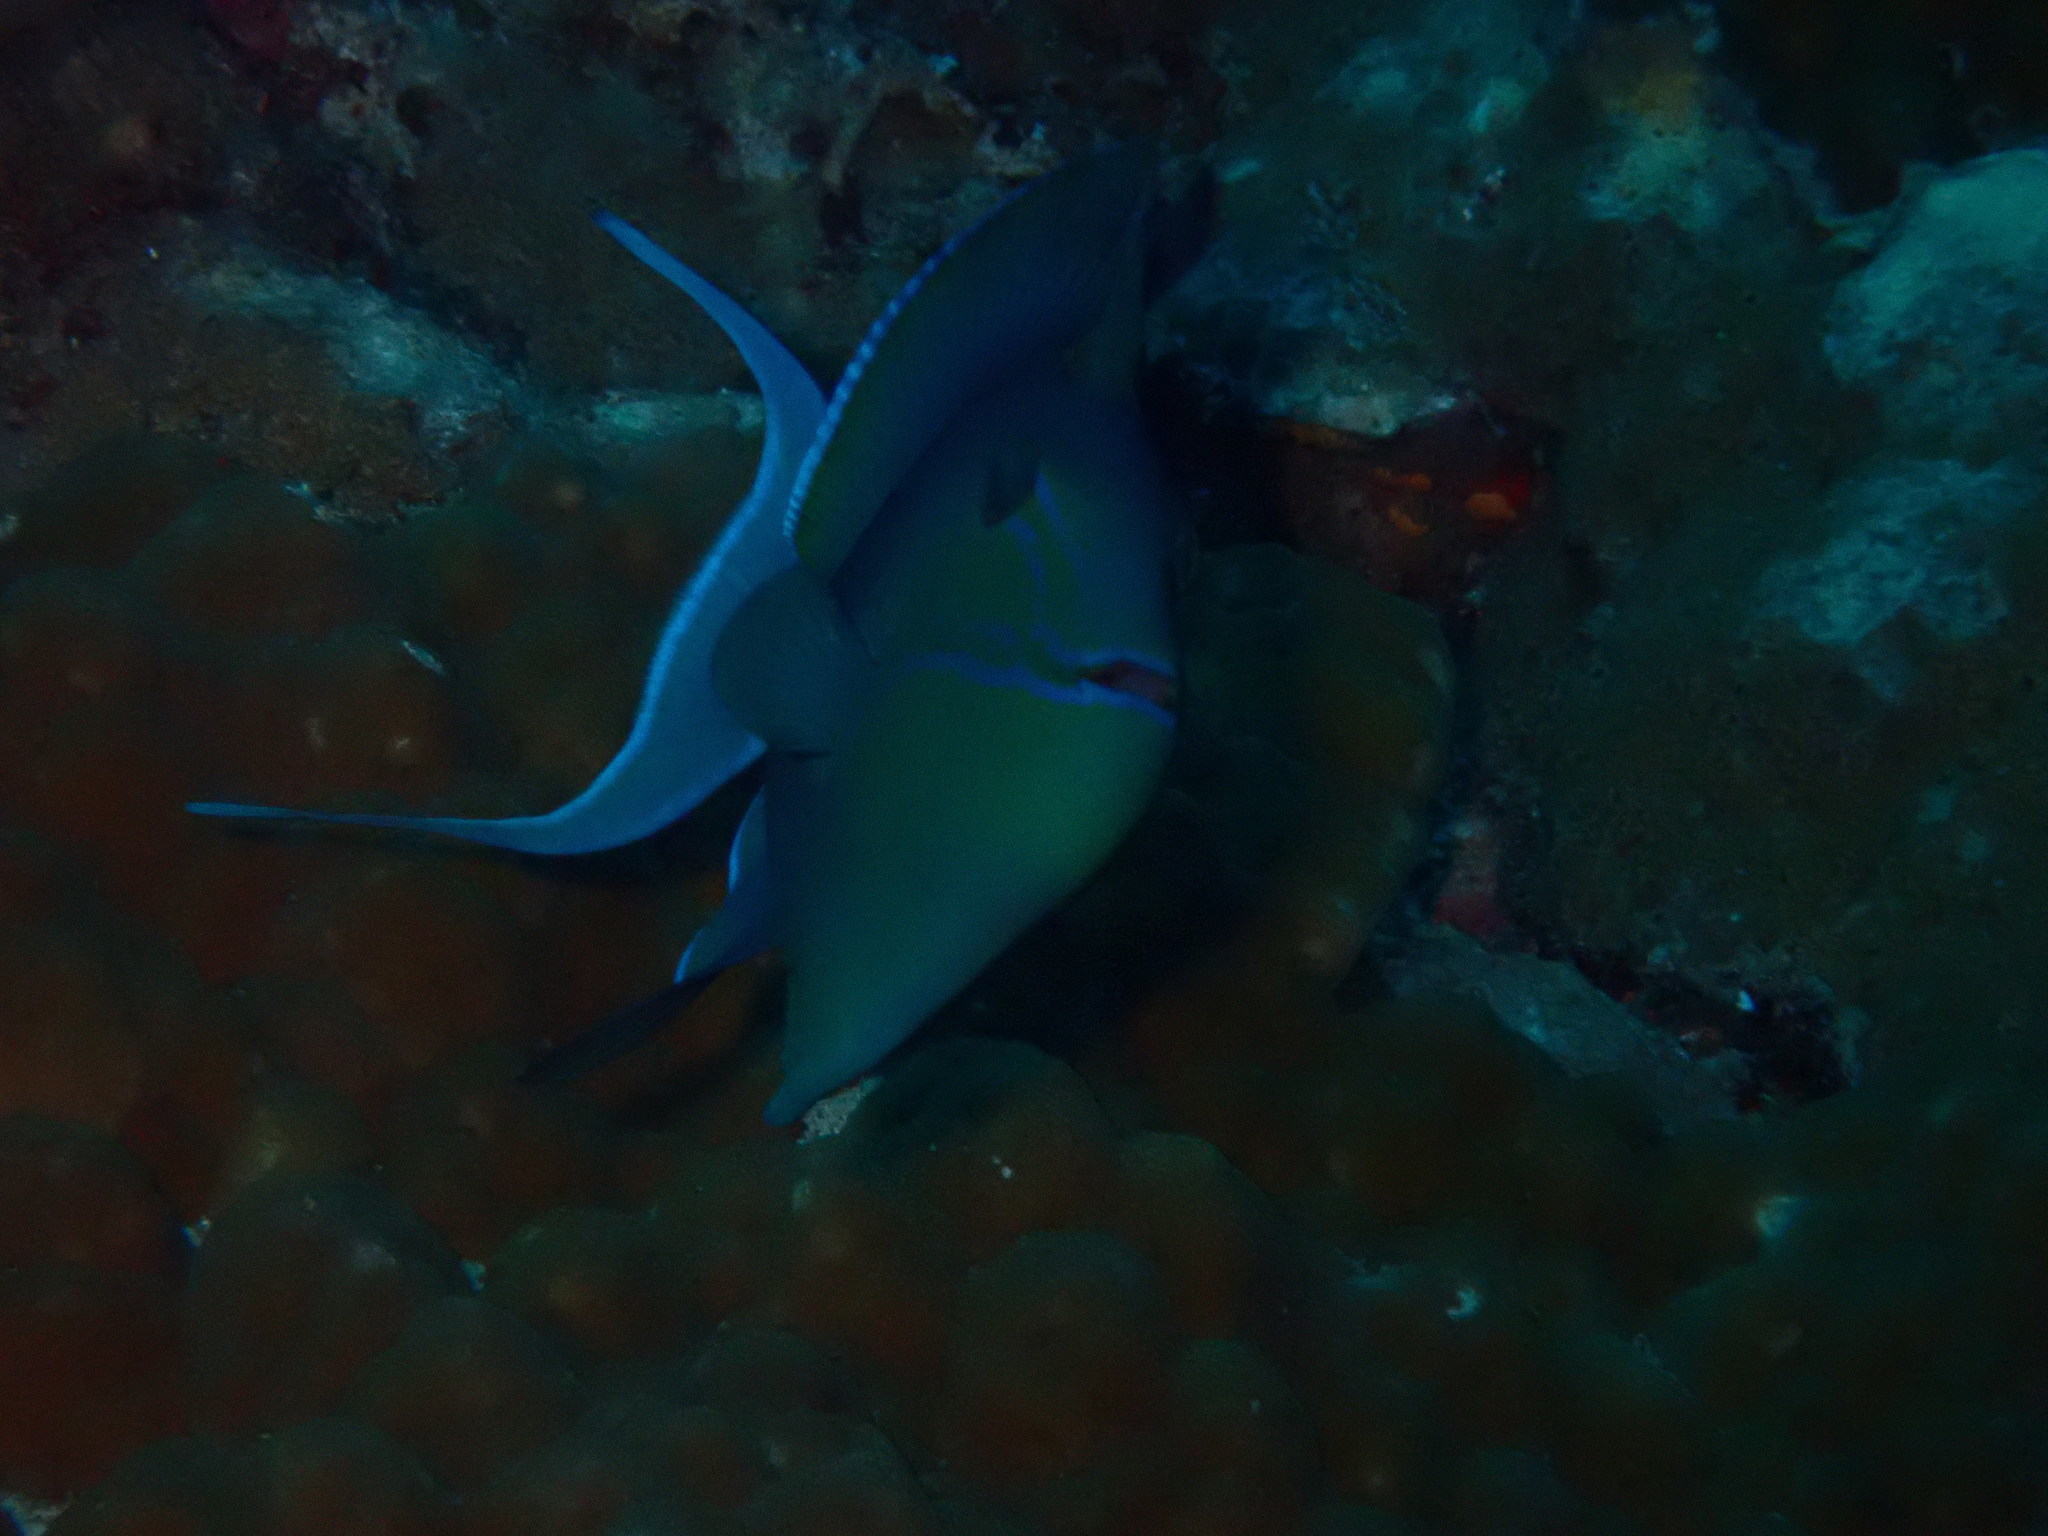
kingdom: Animalia
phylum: Chordata
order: Tetraodontiformes
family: Balistidae
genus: Odonus
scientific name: Odonus niger
